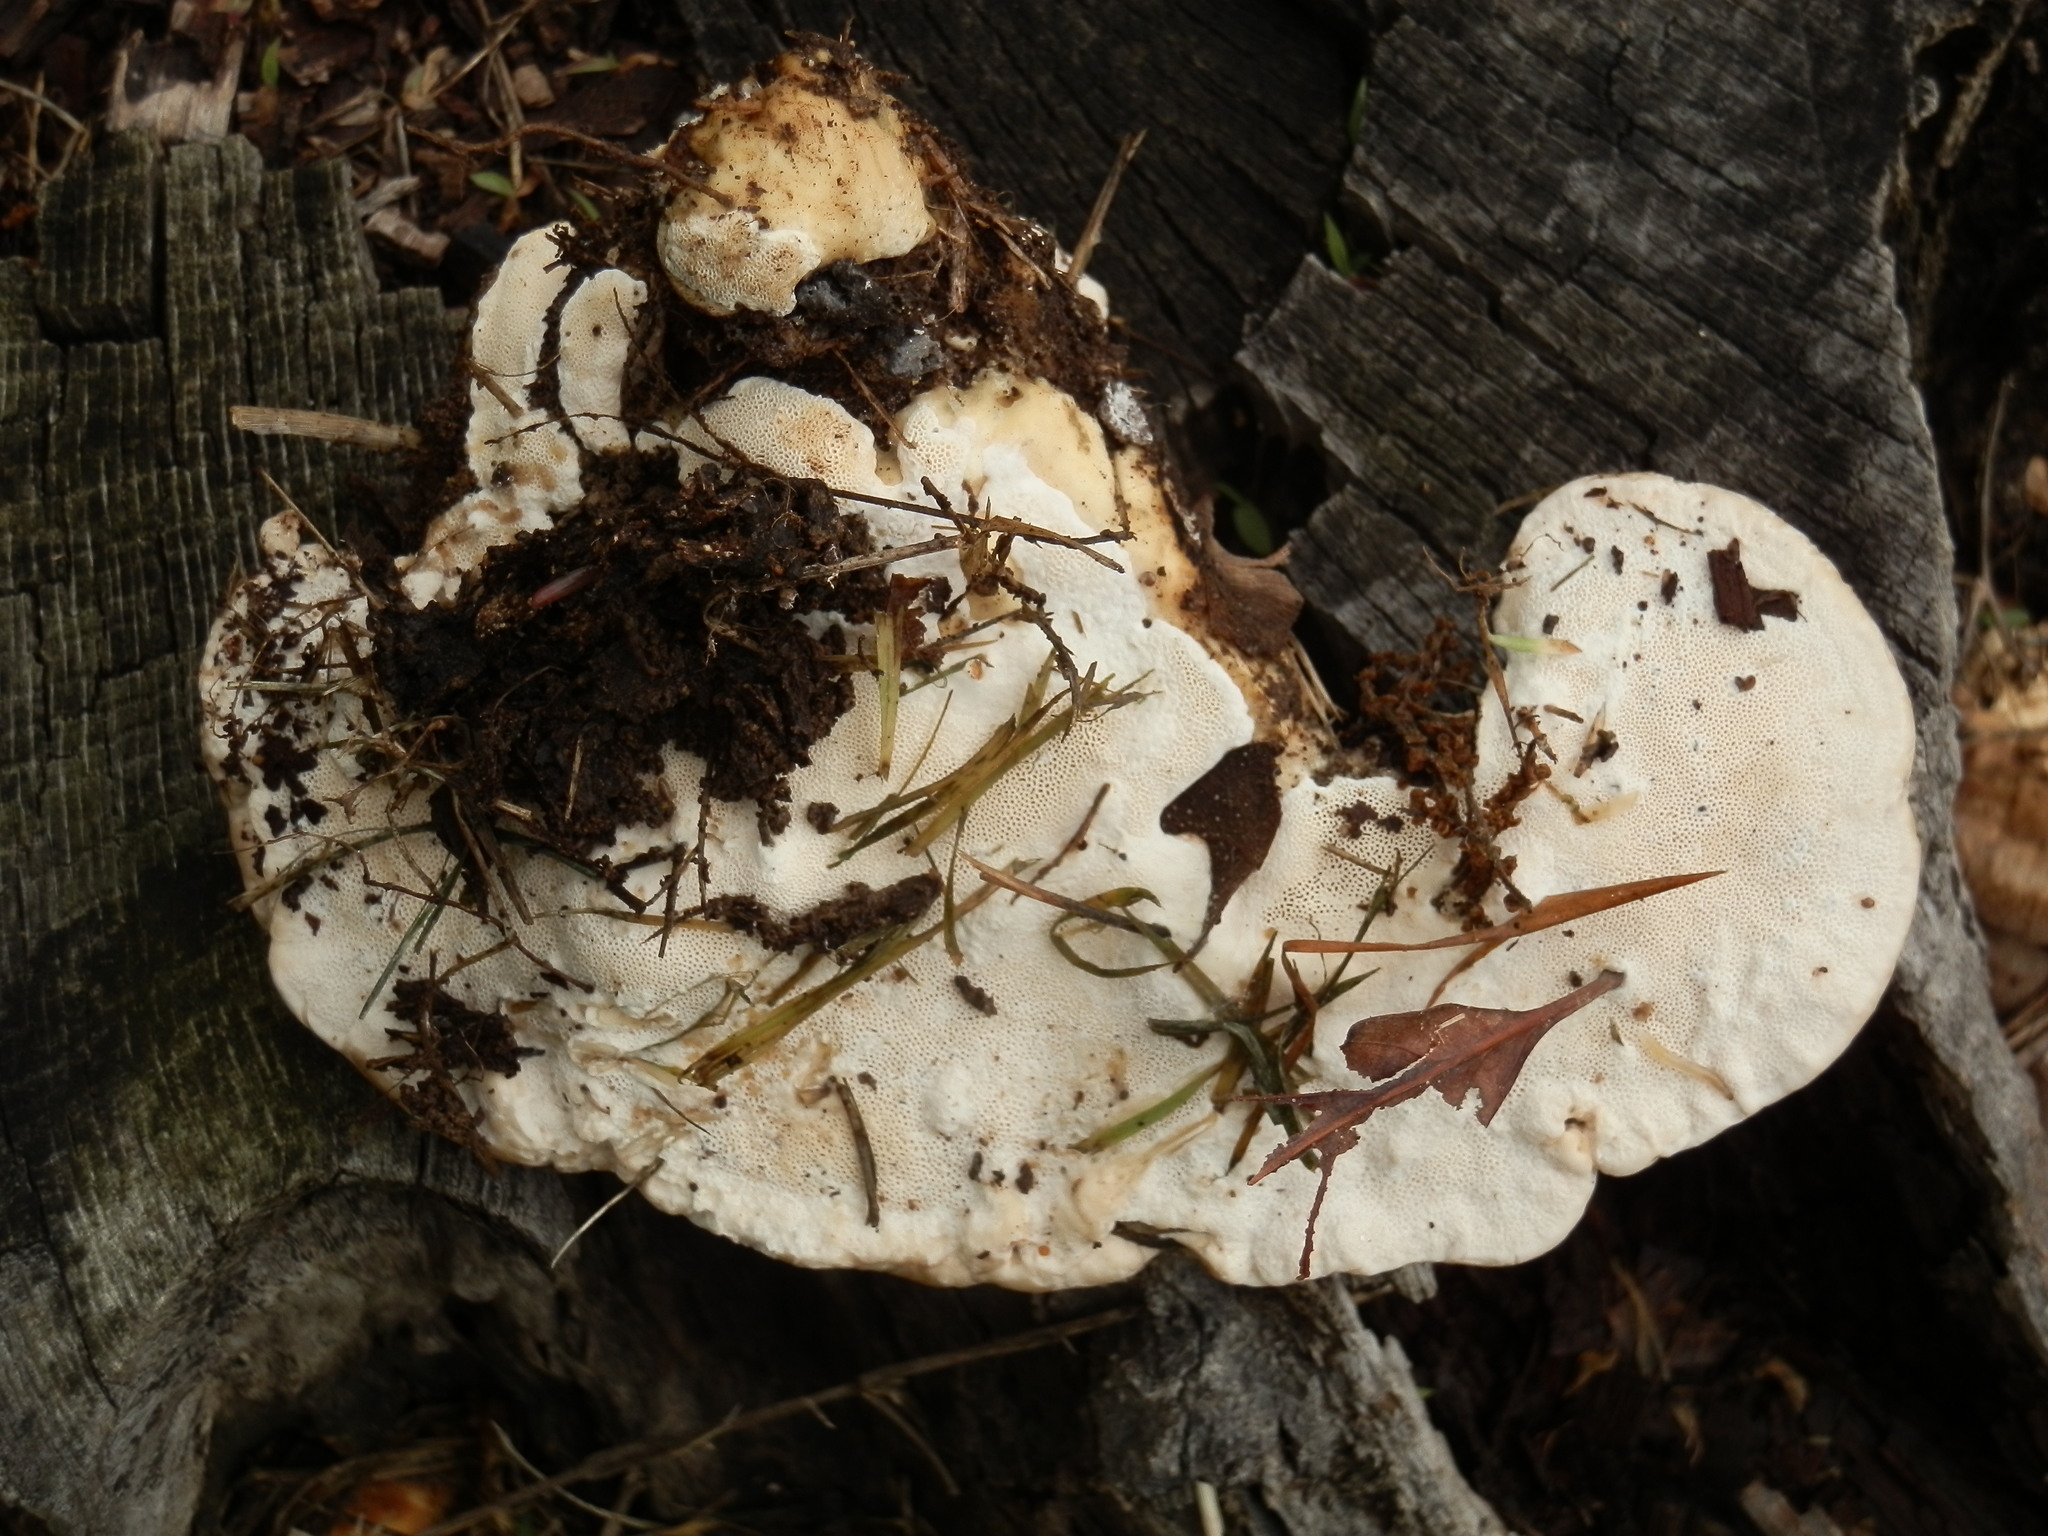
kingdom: Fungi
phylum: Basidiomycota
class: Agaricomycetes
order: Polyporales
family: Ischnodermataceae
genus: Ischnoderma
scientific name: Ischnoderma resinosum
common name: Resinous polypore
